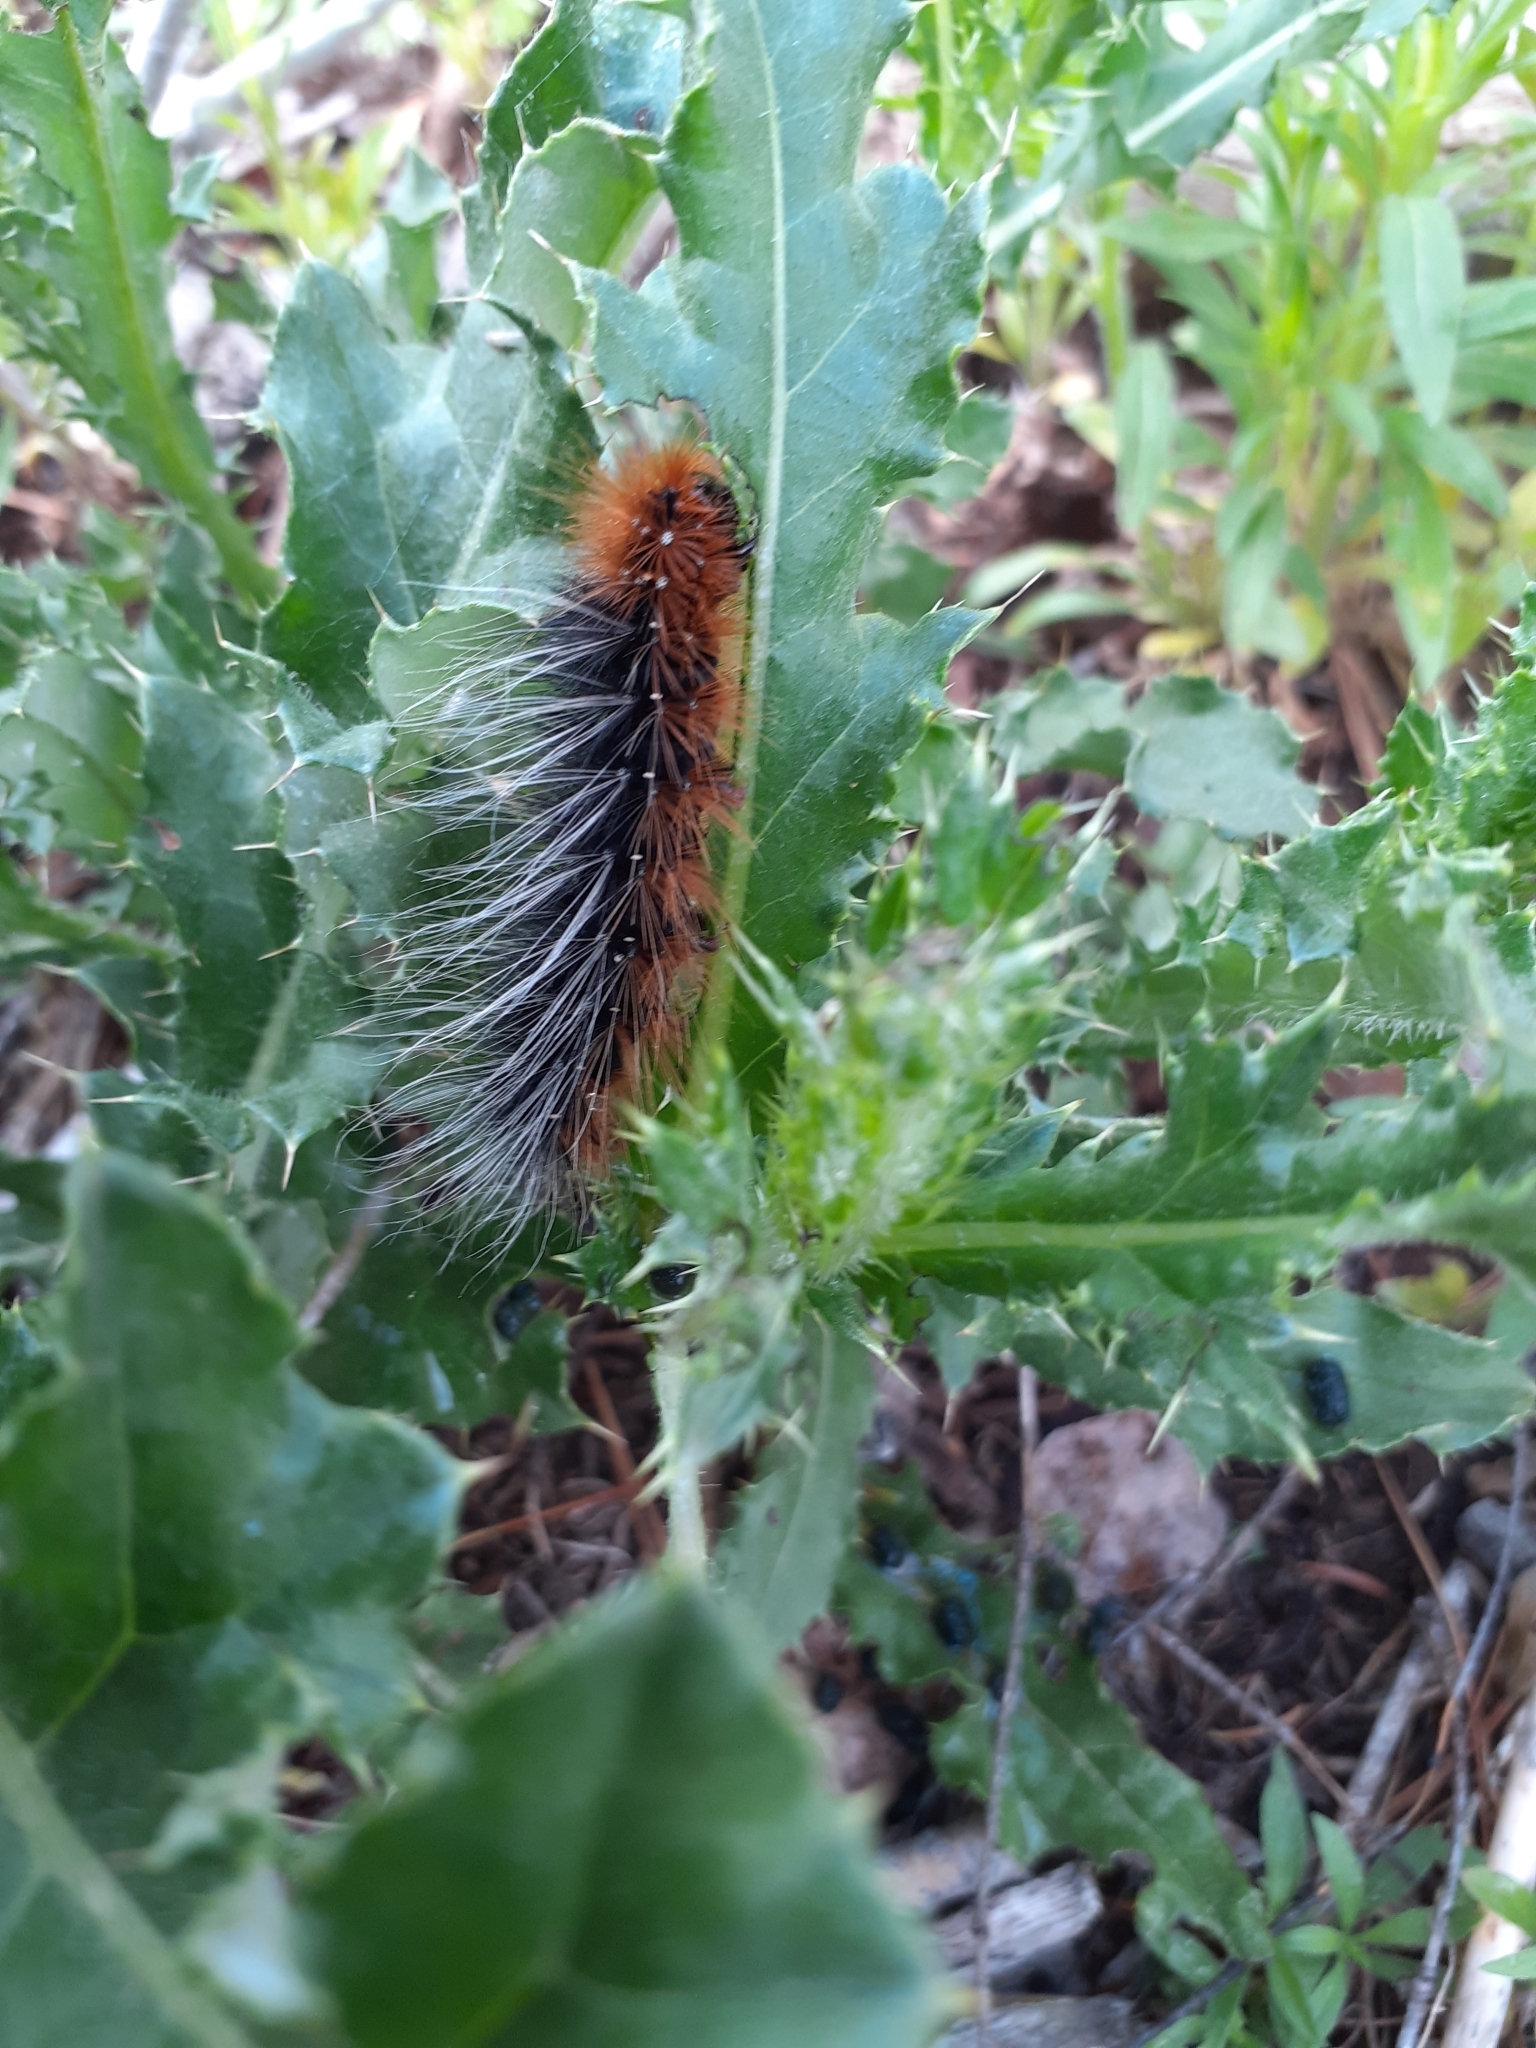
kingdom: Animalia
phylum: Arthropoda
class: Insecta
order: Lepidoptera
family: Erebidae
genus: Arctia
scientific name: Arctia caja
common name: Garden tiger
